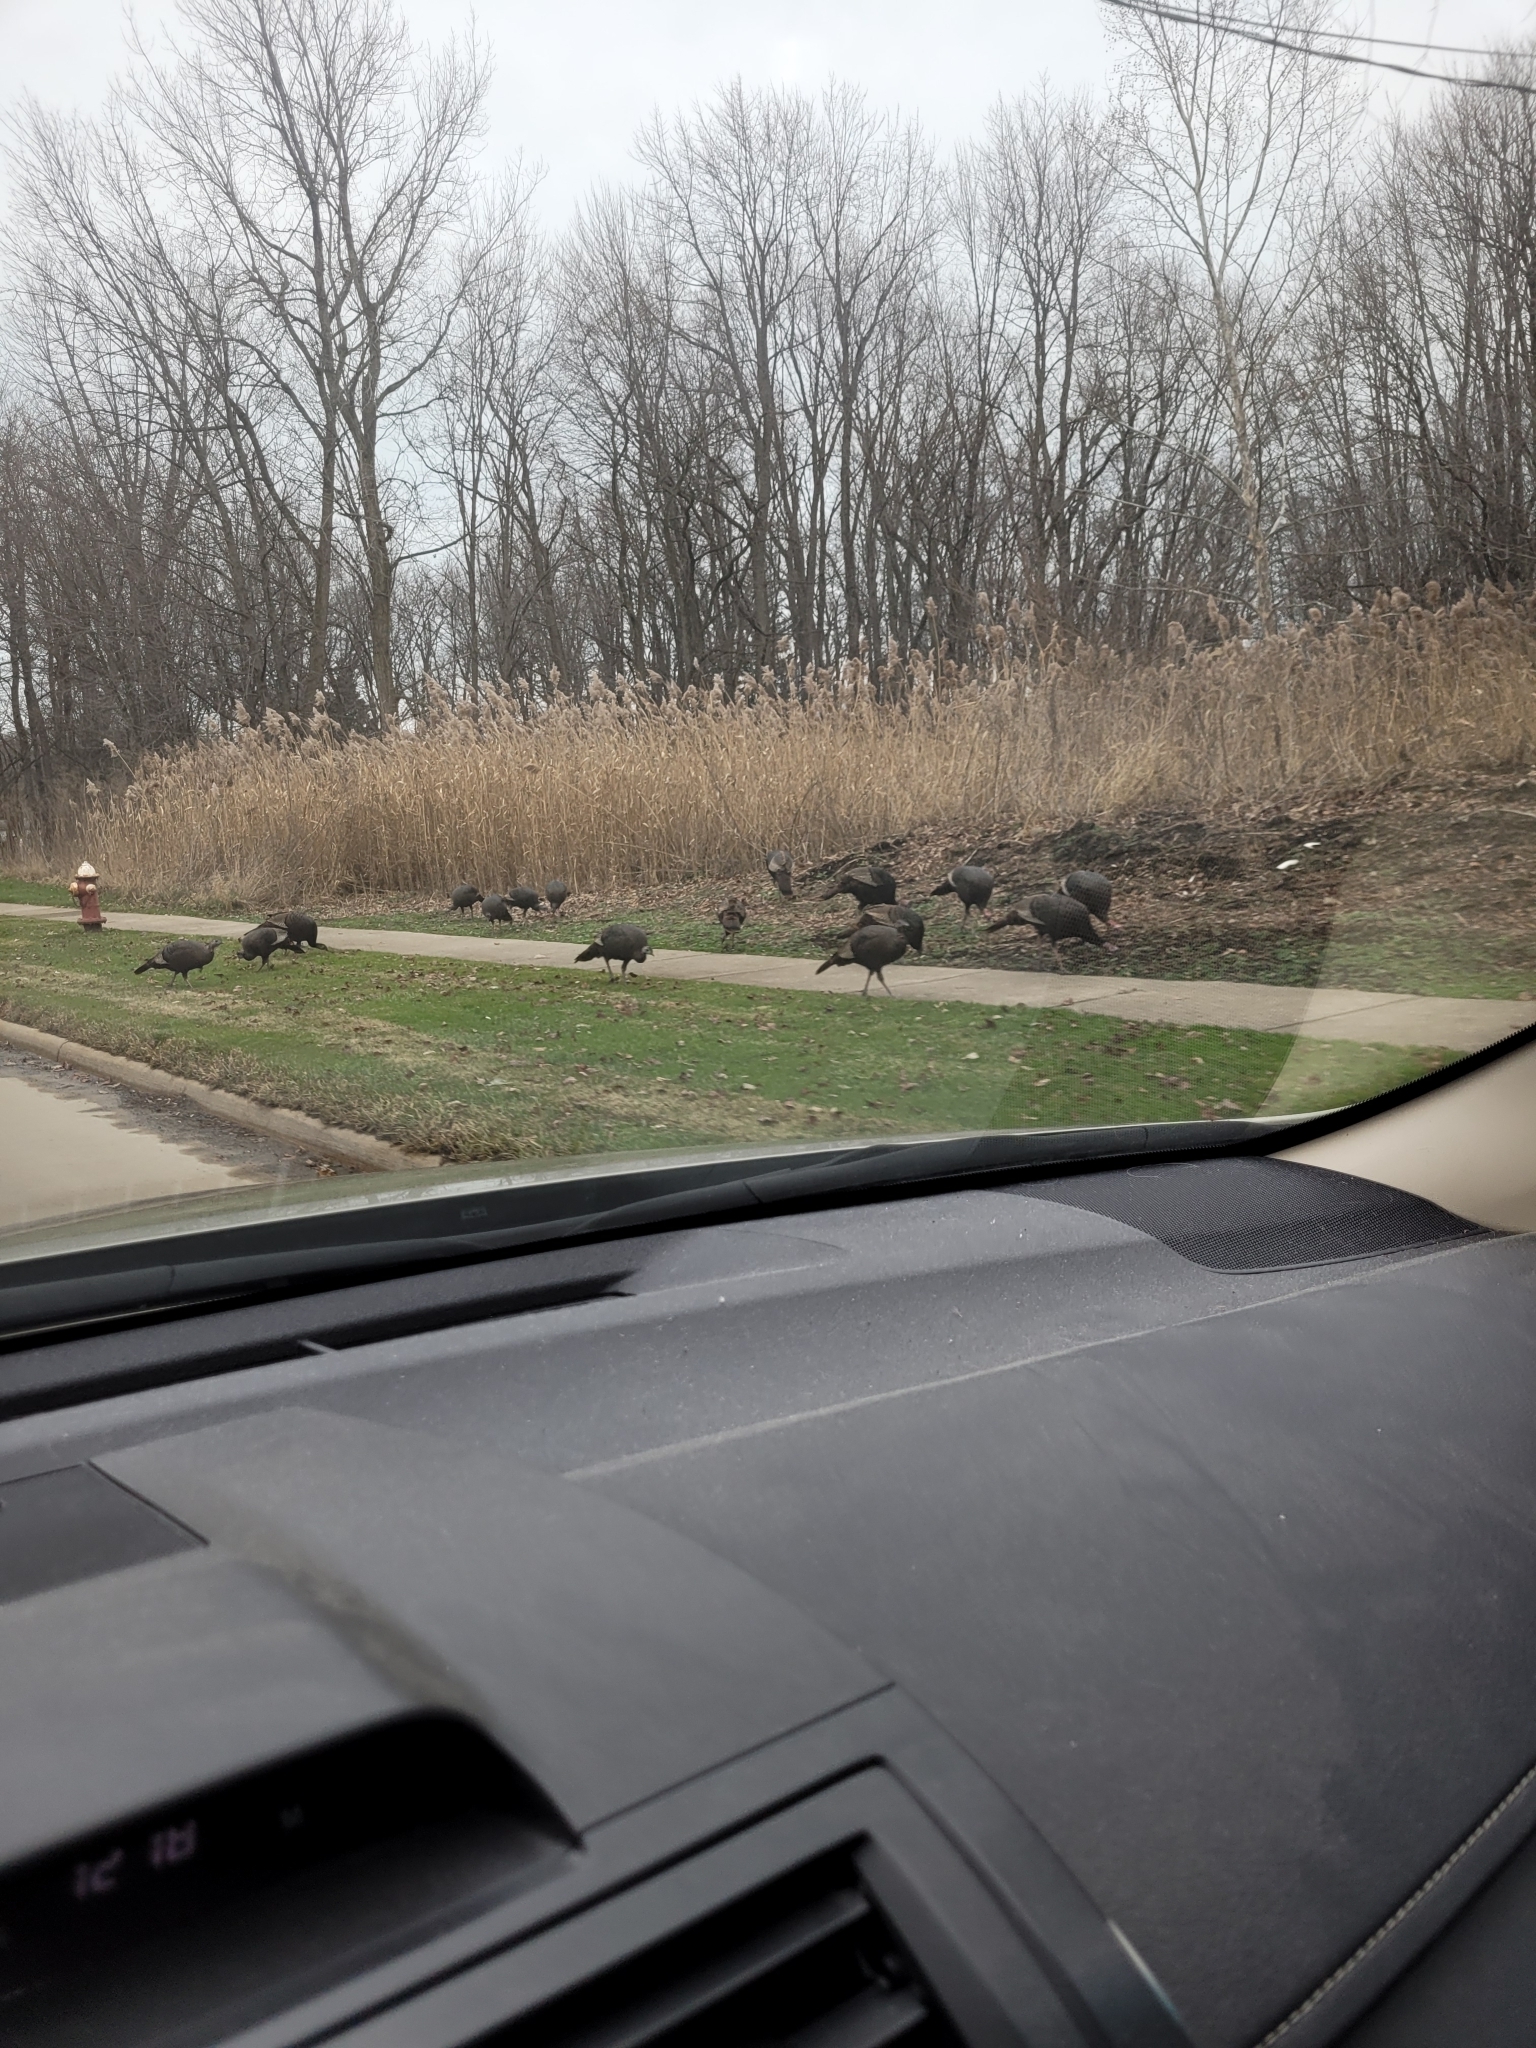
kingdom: Animalia
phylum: Chordata
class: Aves
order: Galliformes
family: Phasianidae
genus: Meleagris
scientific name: Meleagris gallopavo
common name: Wild turkey
